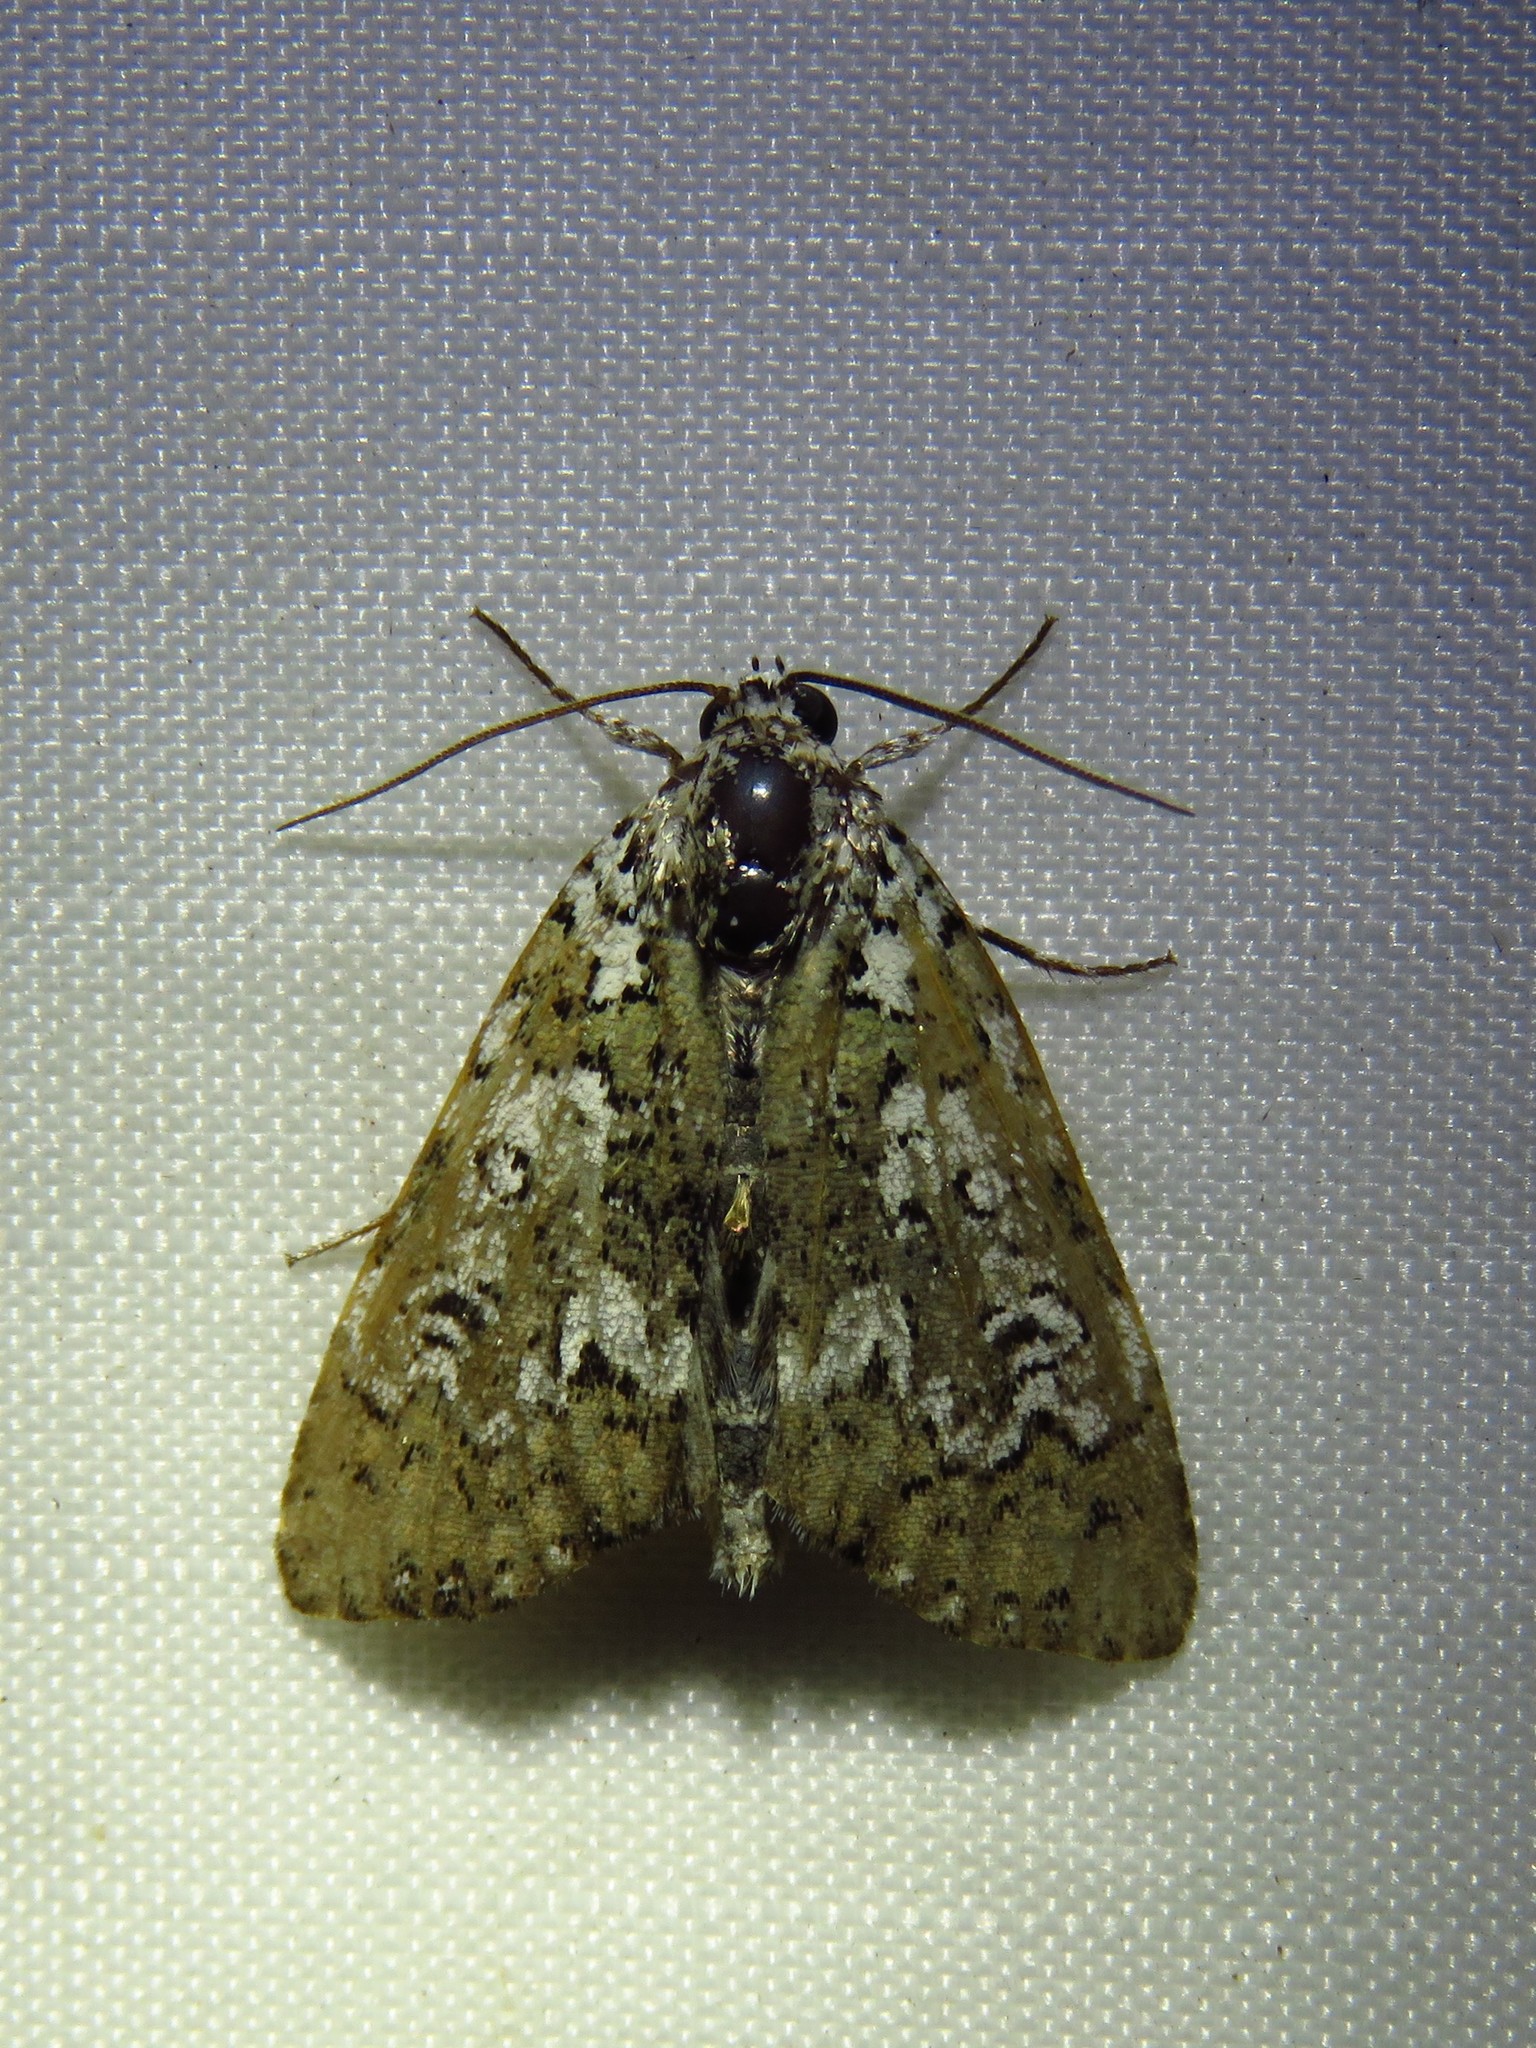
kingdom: Animalia
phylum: Arthropoda
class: Insecta
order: Lepidoptera
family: Noctuidae
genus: Cerma
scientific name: Cerma cora
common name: Bird dropping moth
